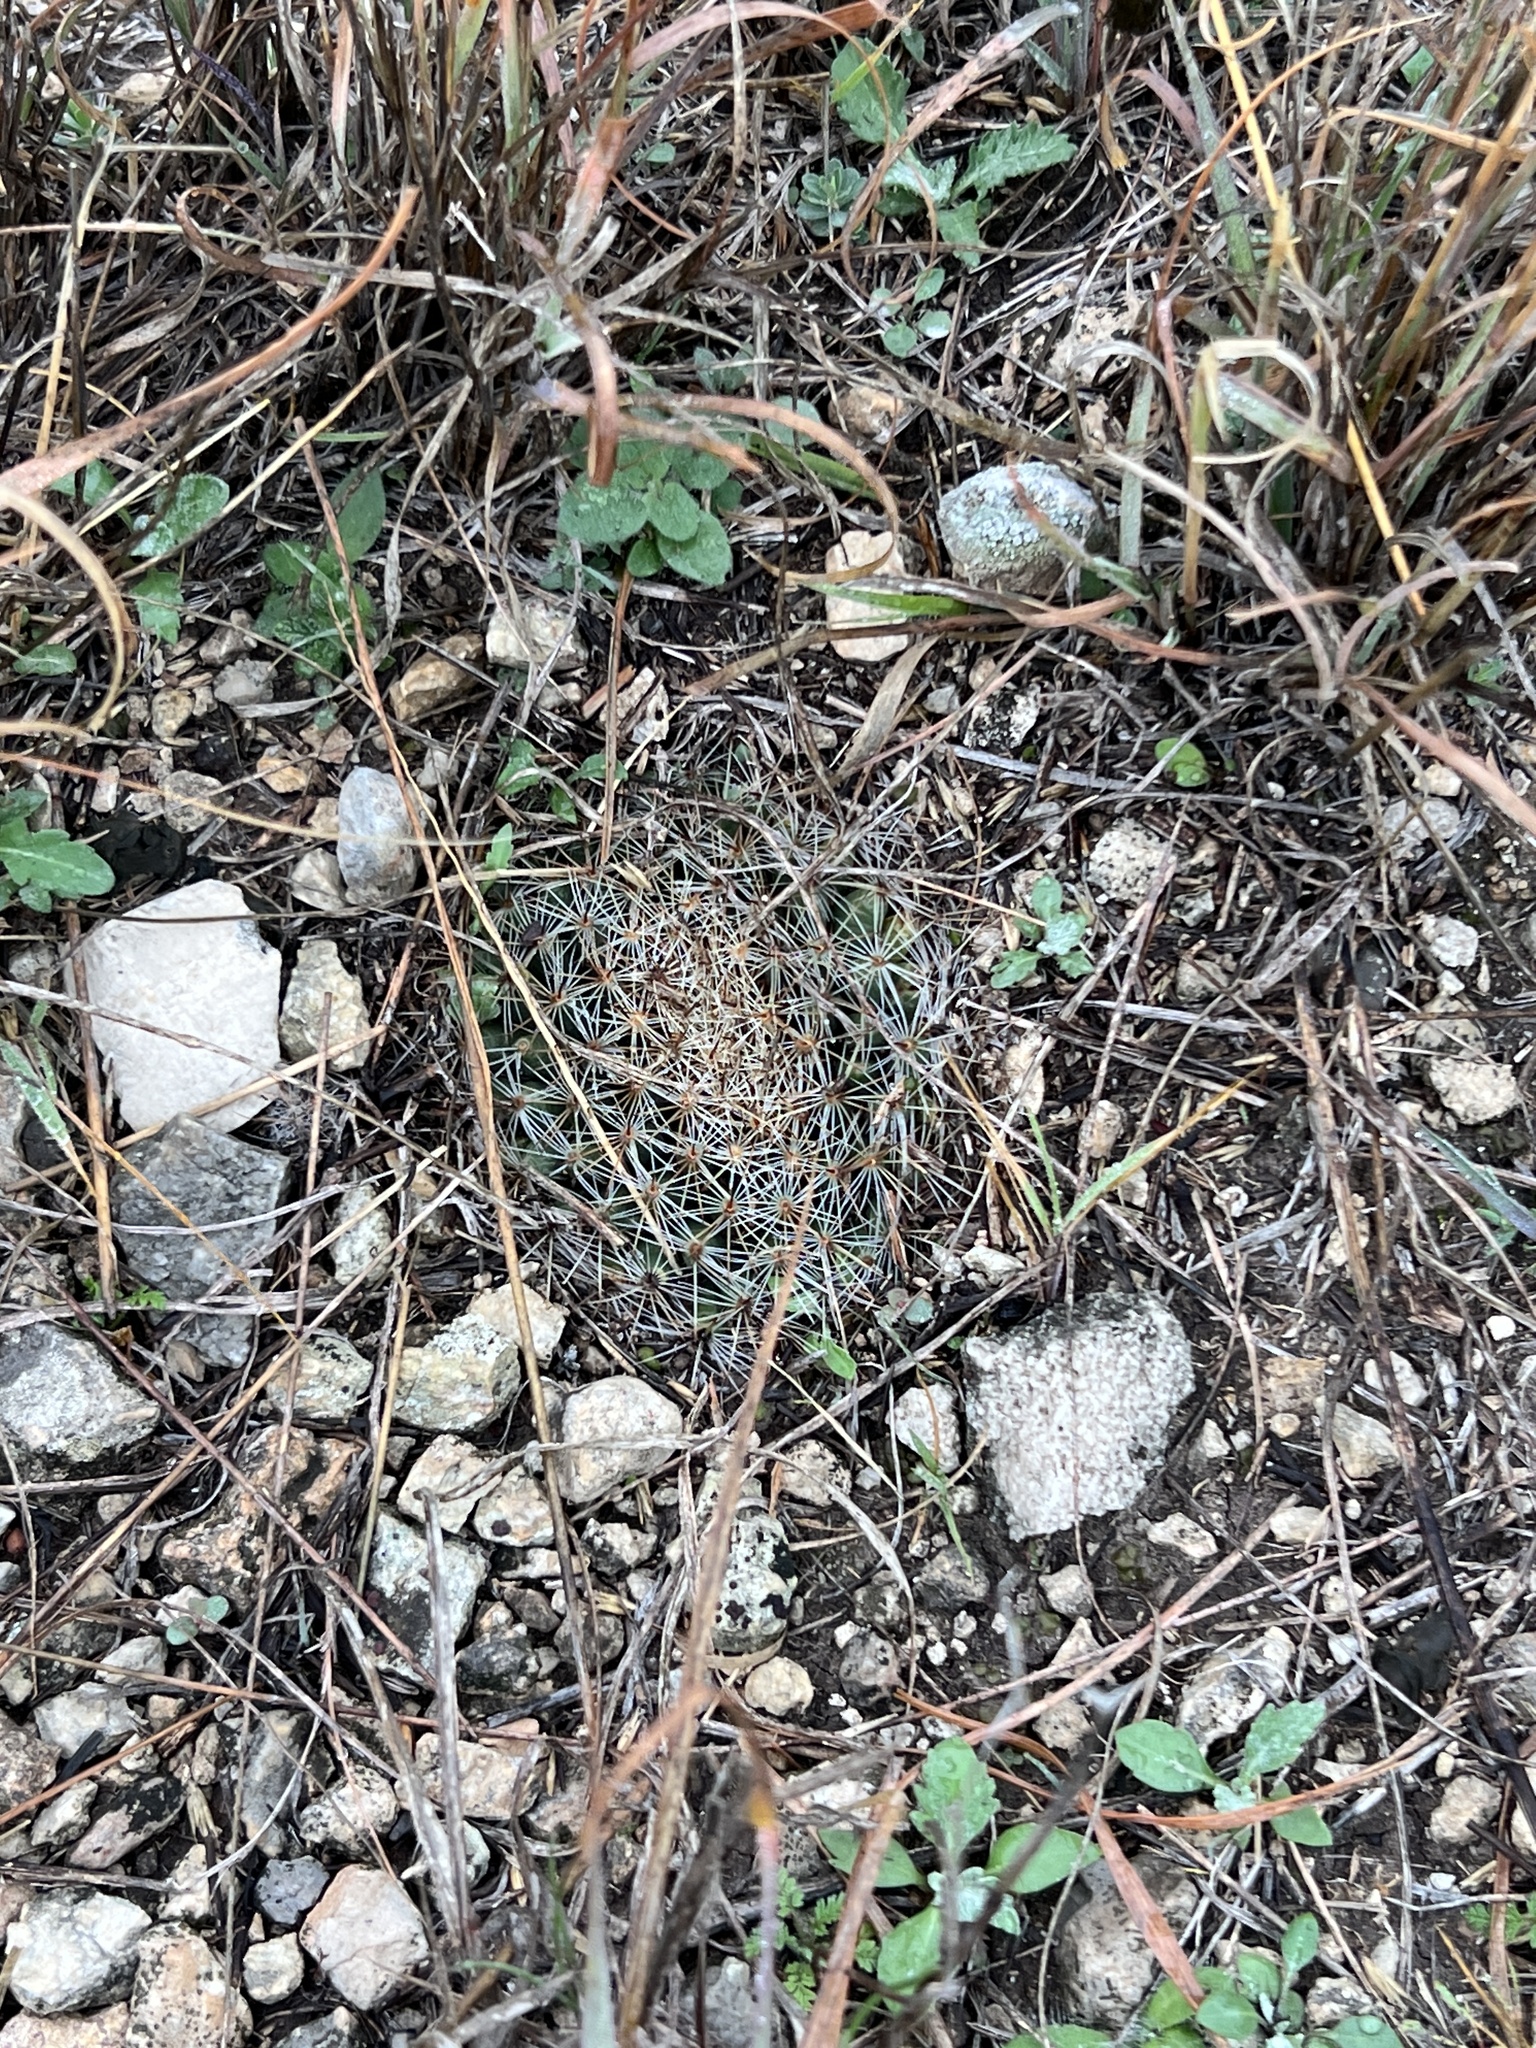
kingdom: Plantae
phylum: Tracheophyta
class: Magnoliopsida
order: Caryophyllales
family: Cactaceae
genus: Mammillaria
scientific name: Mammillaria heyderi
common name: Little nipple cactus
